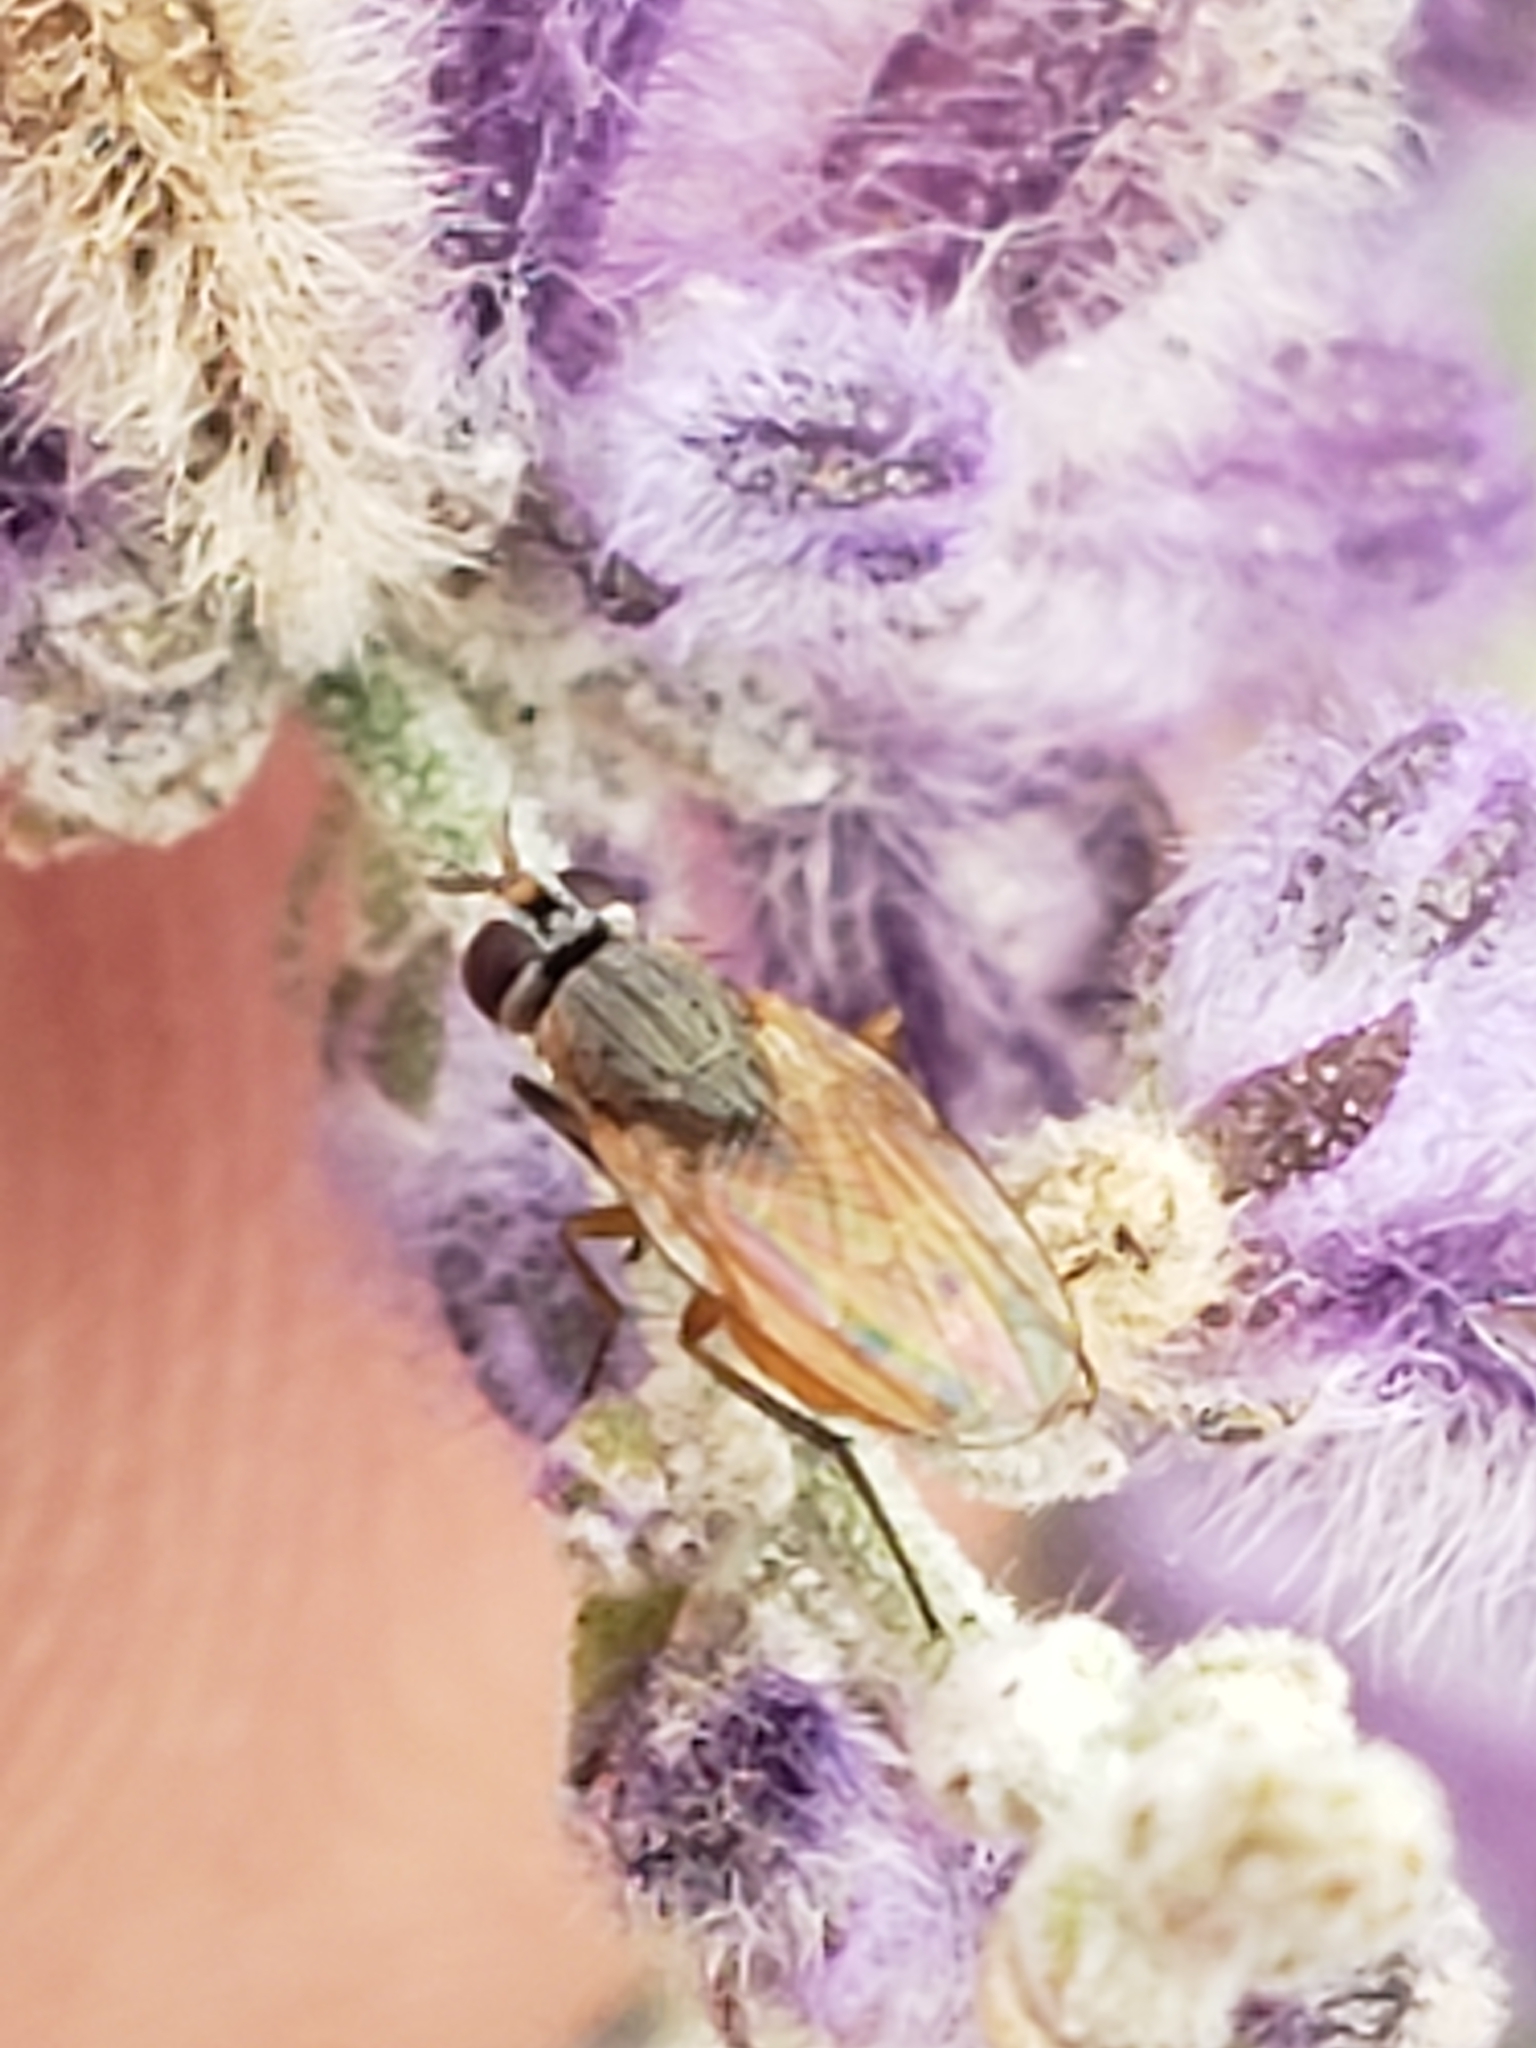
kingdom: Animalia
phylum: Arthropoda
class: Insecta
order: Diptera
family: Muscidae
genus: Atherigona
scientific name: Atherigona reversura
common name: Bermudagrass stem maggot
